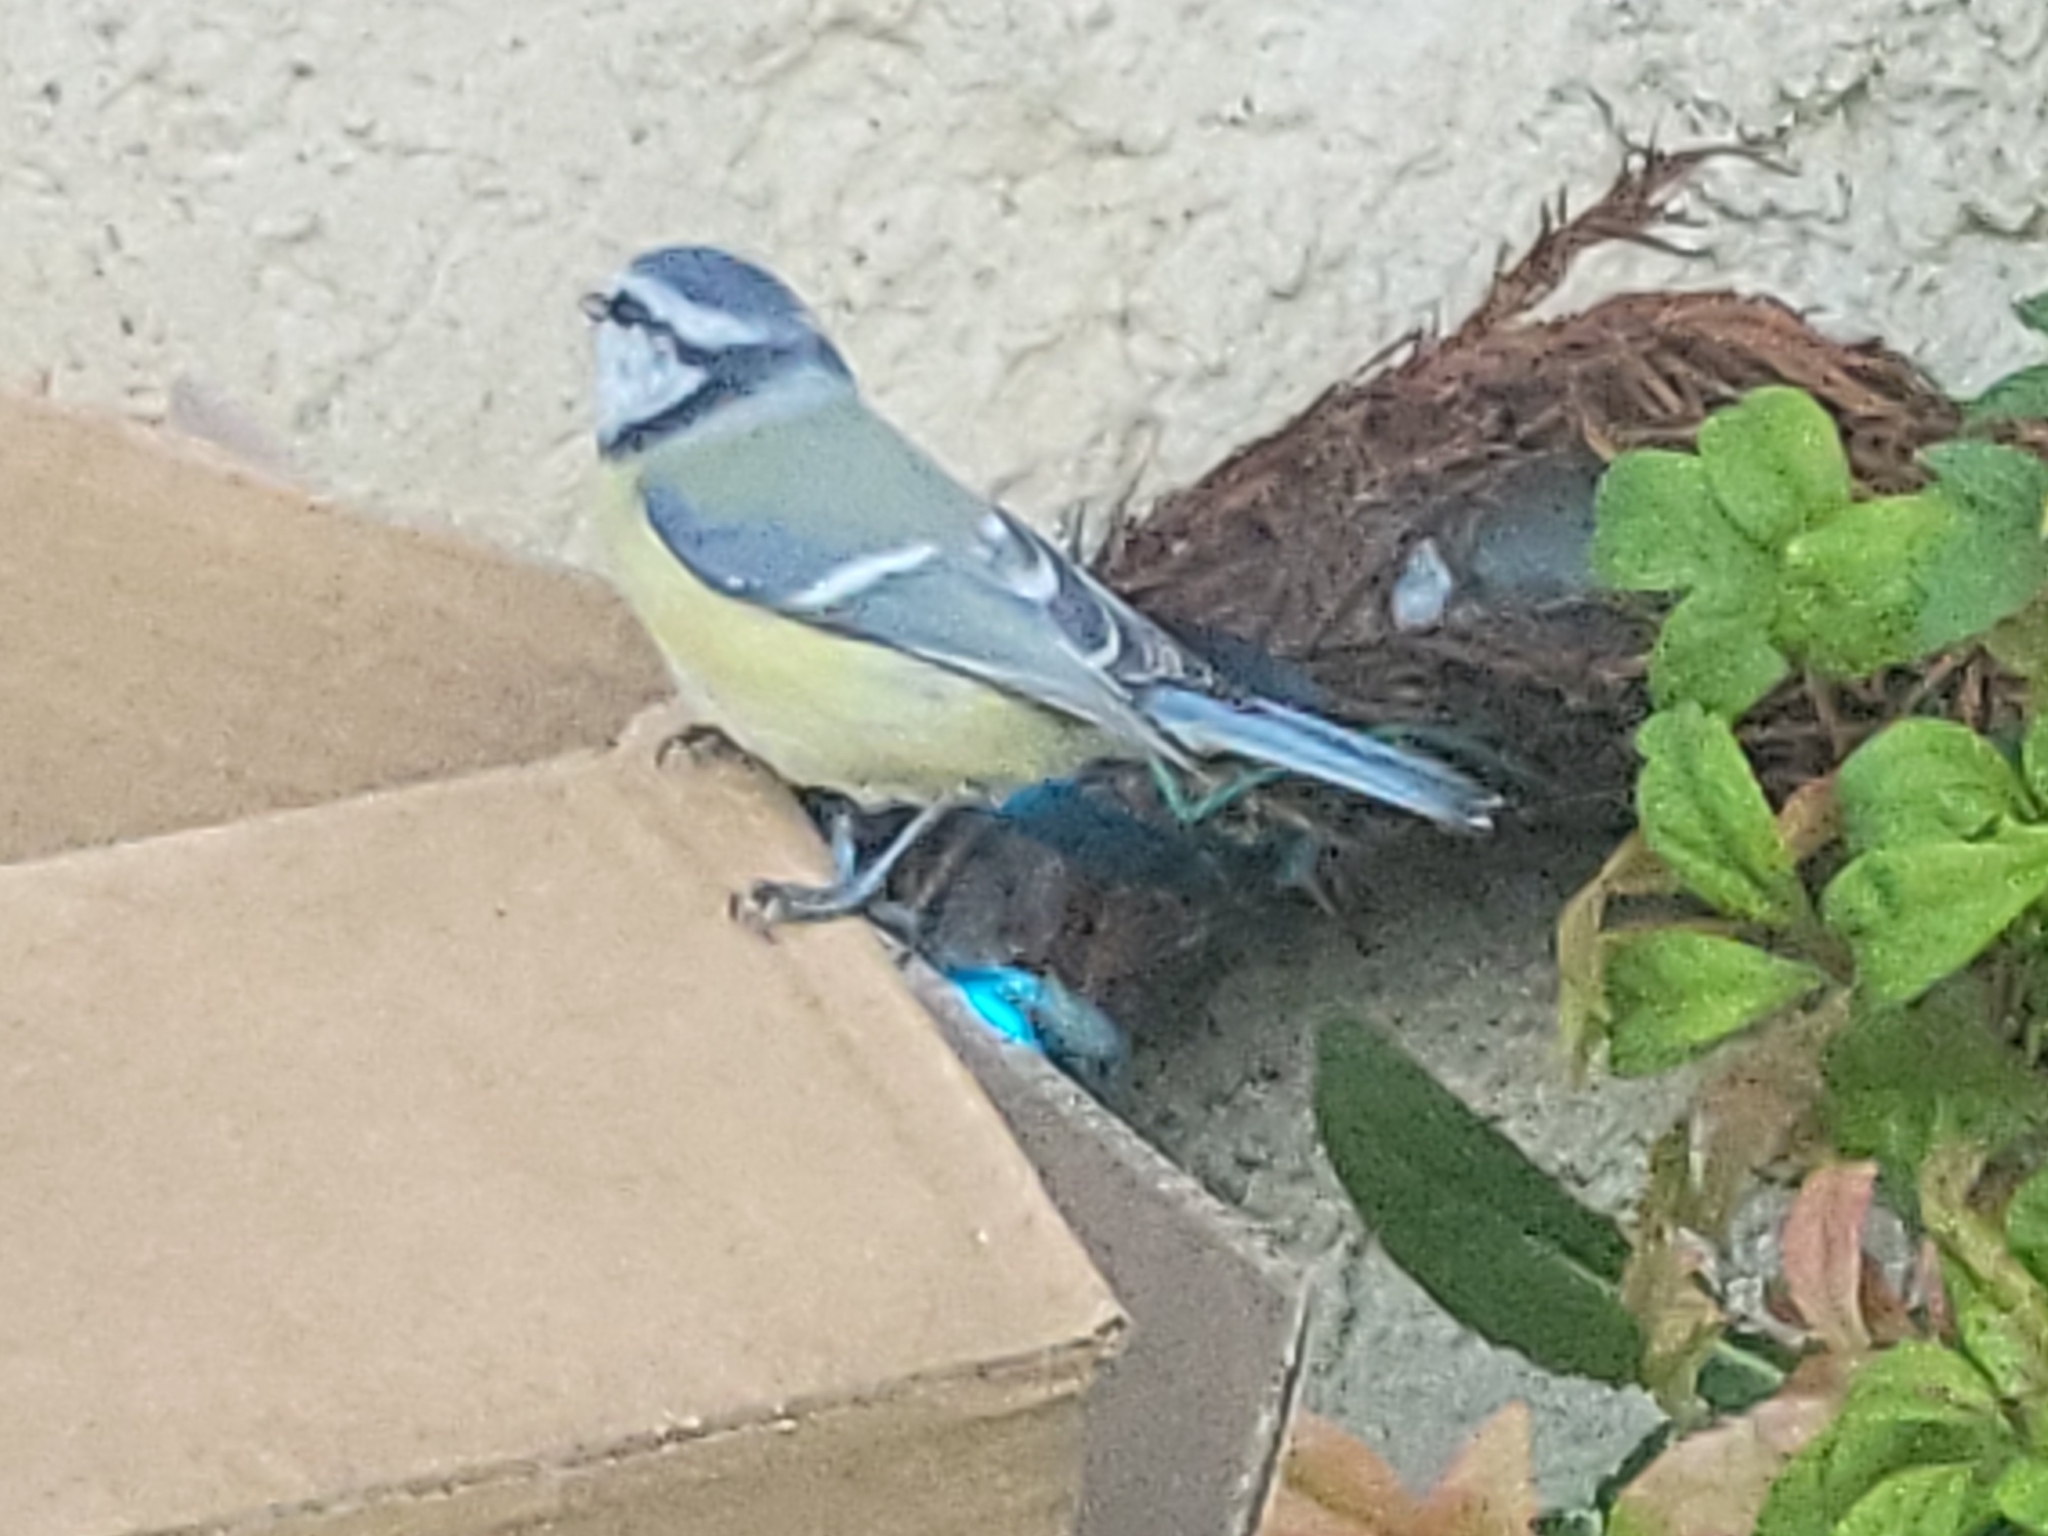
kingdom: Animalia
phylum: Chordata
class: Aves
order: Passeriformes
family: Paridae
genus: Cyanistes
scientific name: Cyanistes caeruleus
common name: Eurasian blue tit
